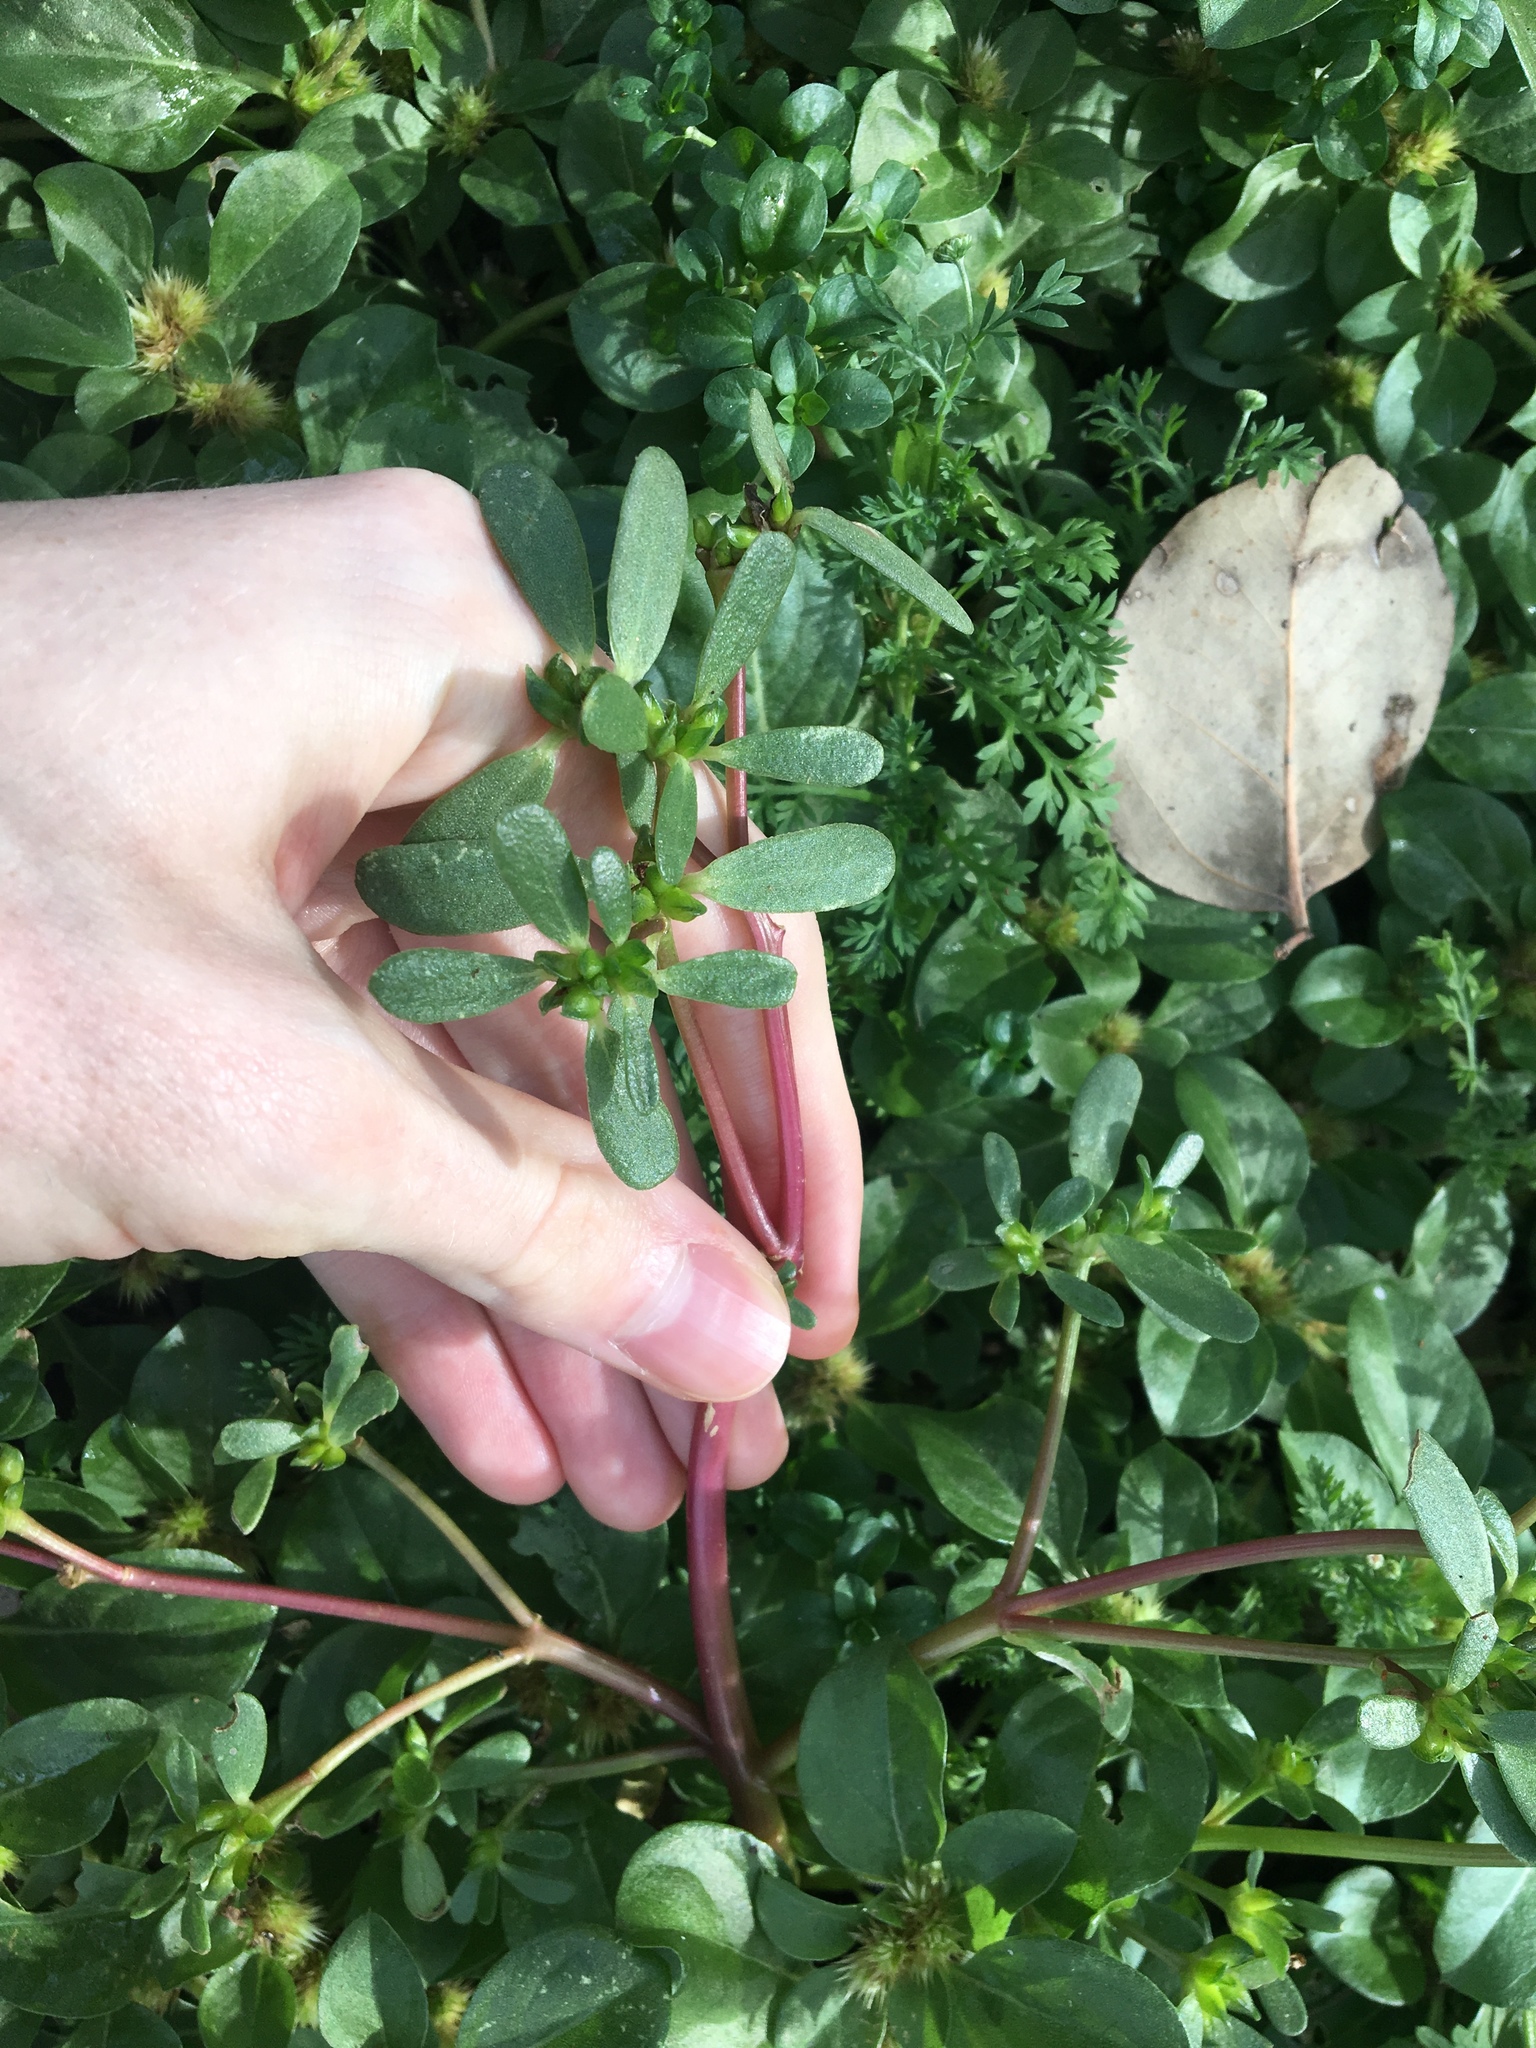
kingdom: Plantae
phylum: Tracheophyta
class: Magnoliopsida
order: Caryophyllales
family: Portulacaceae
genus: Portulaca
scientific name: Portulaca oleracea
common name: Common purslane
